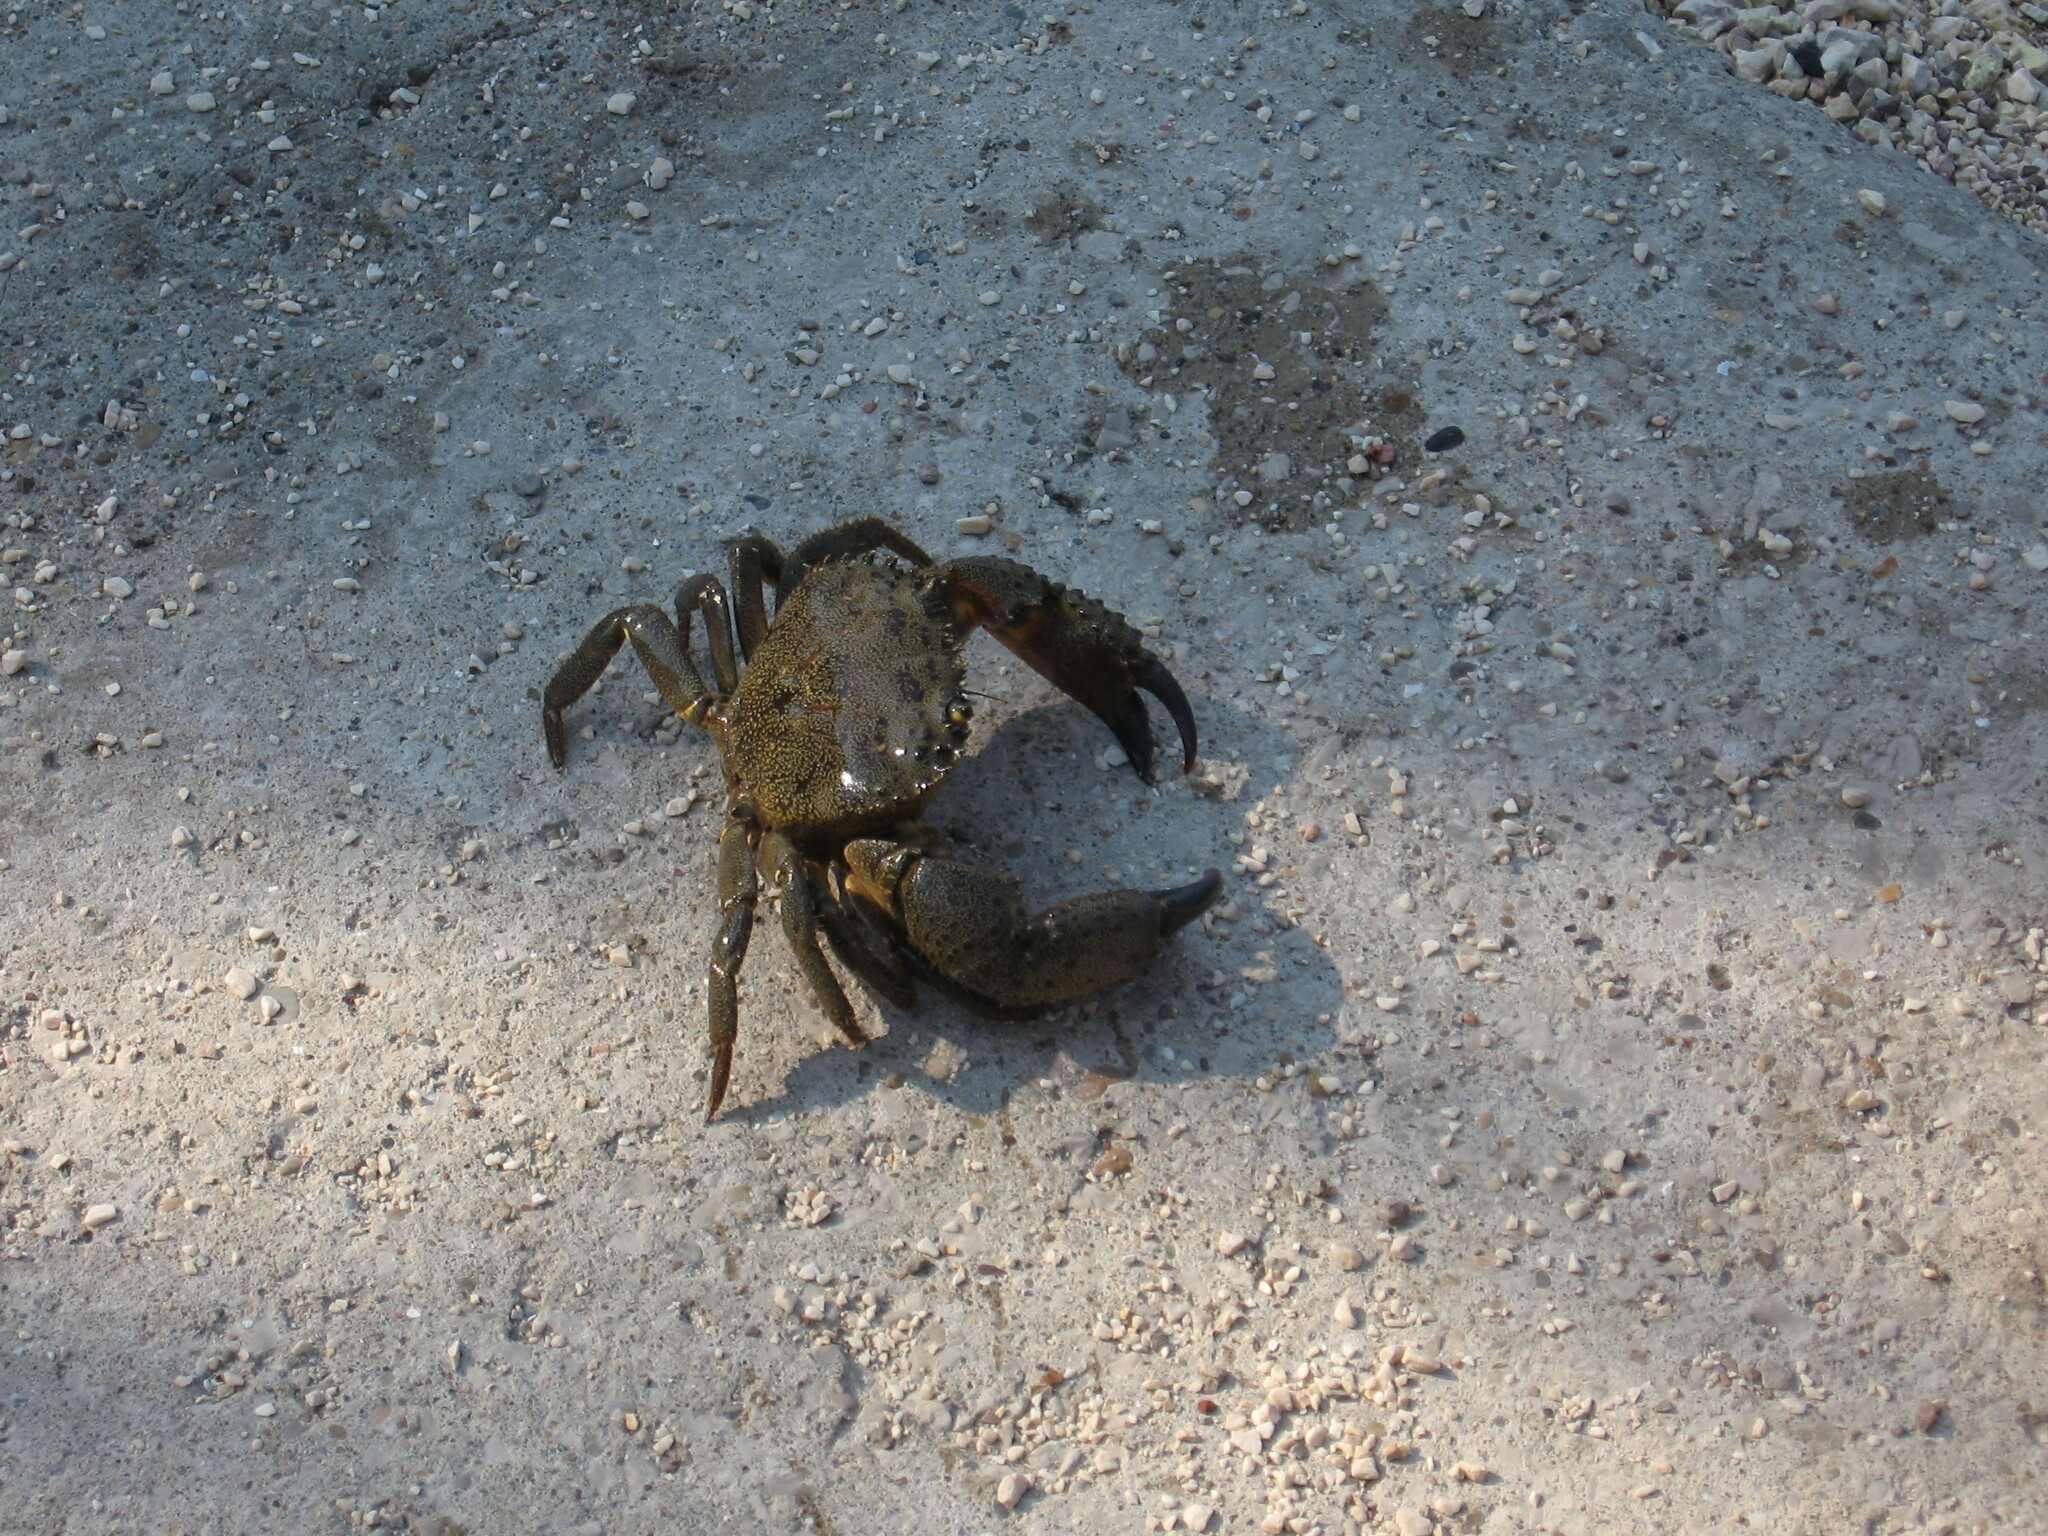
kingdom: Animalia
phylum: Arthropoda
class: Malacostraca
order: Decapoda
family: Eriphiidae
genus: Eriphia
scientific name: Eriphia verrucosa
